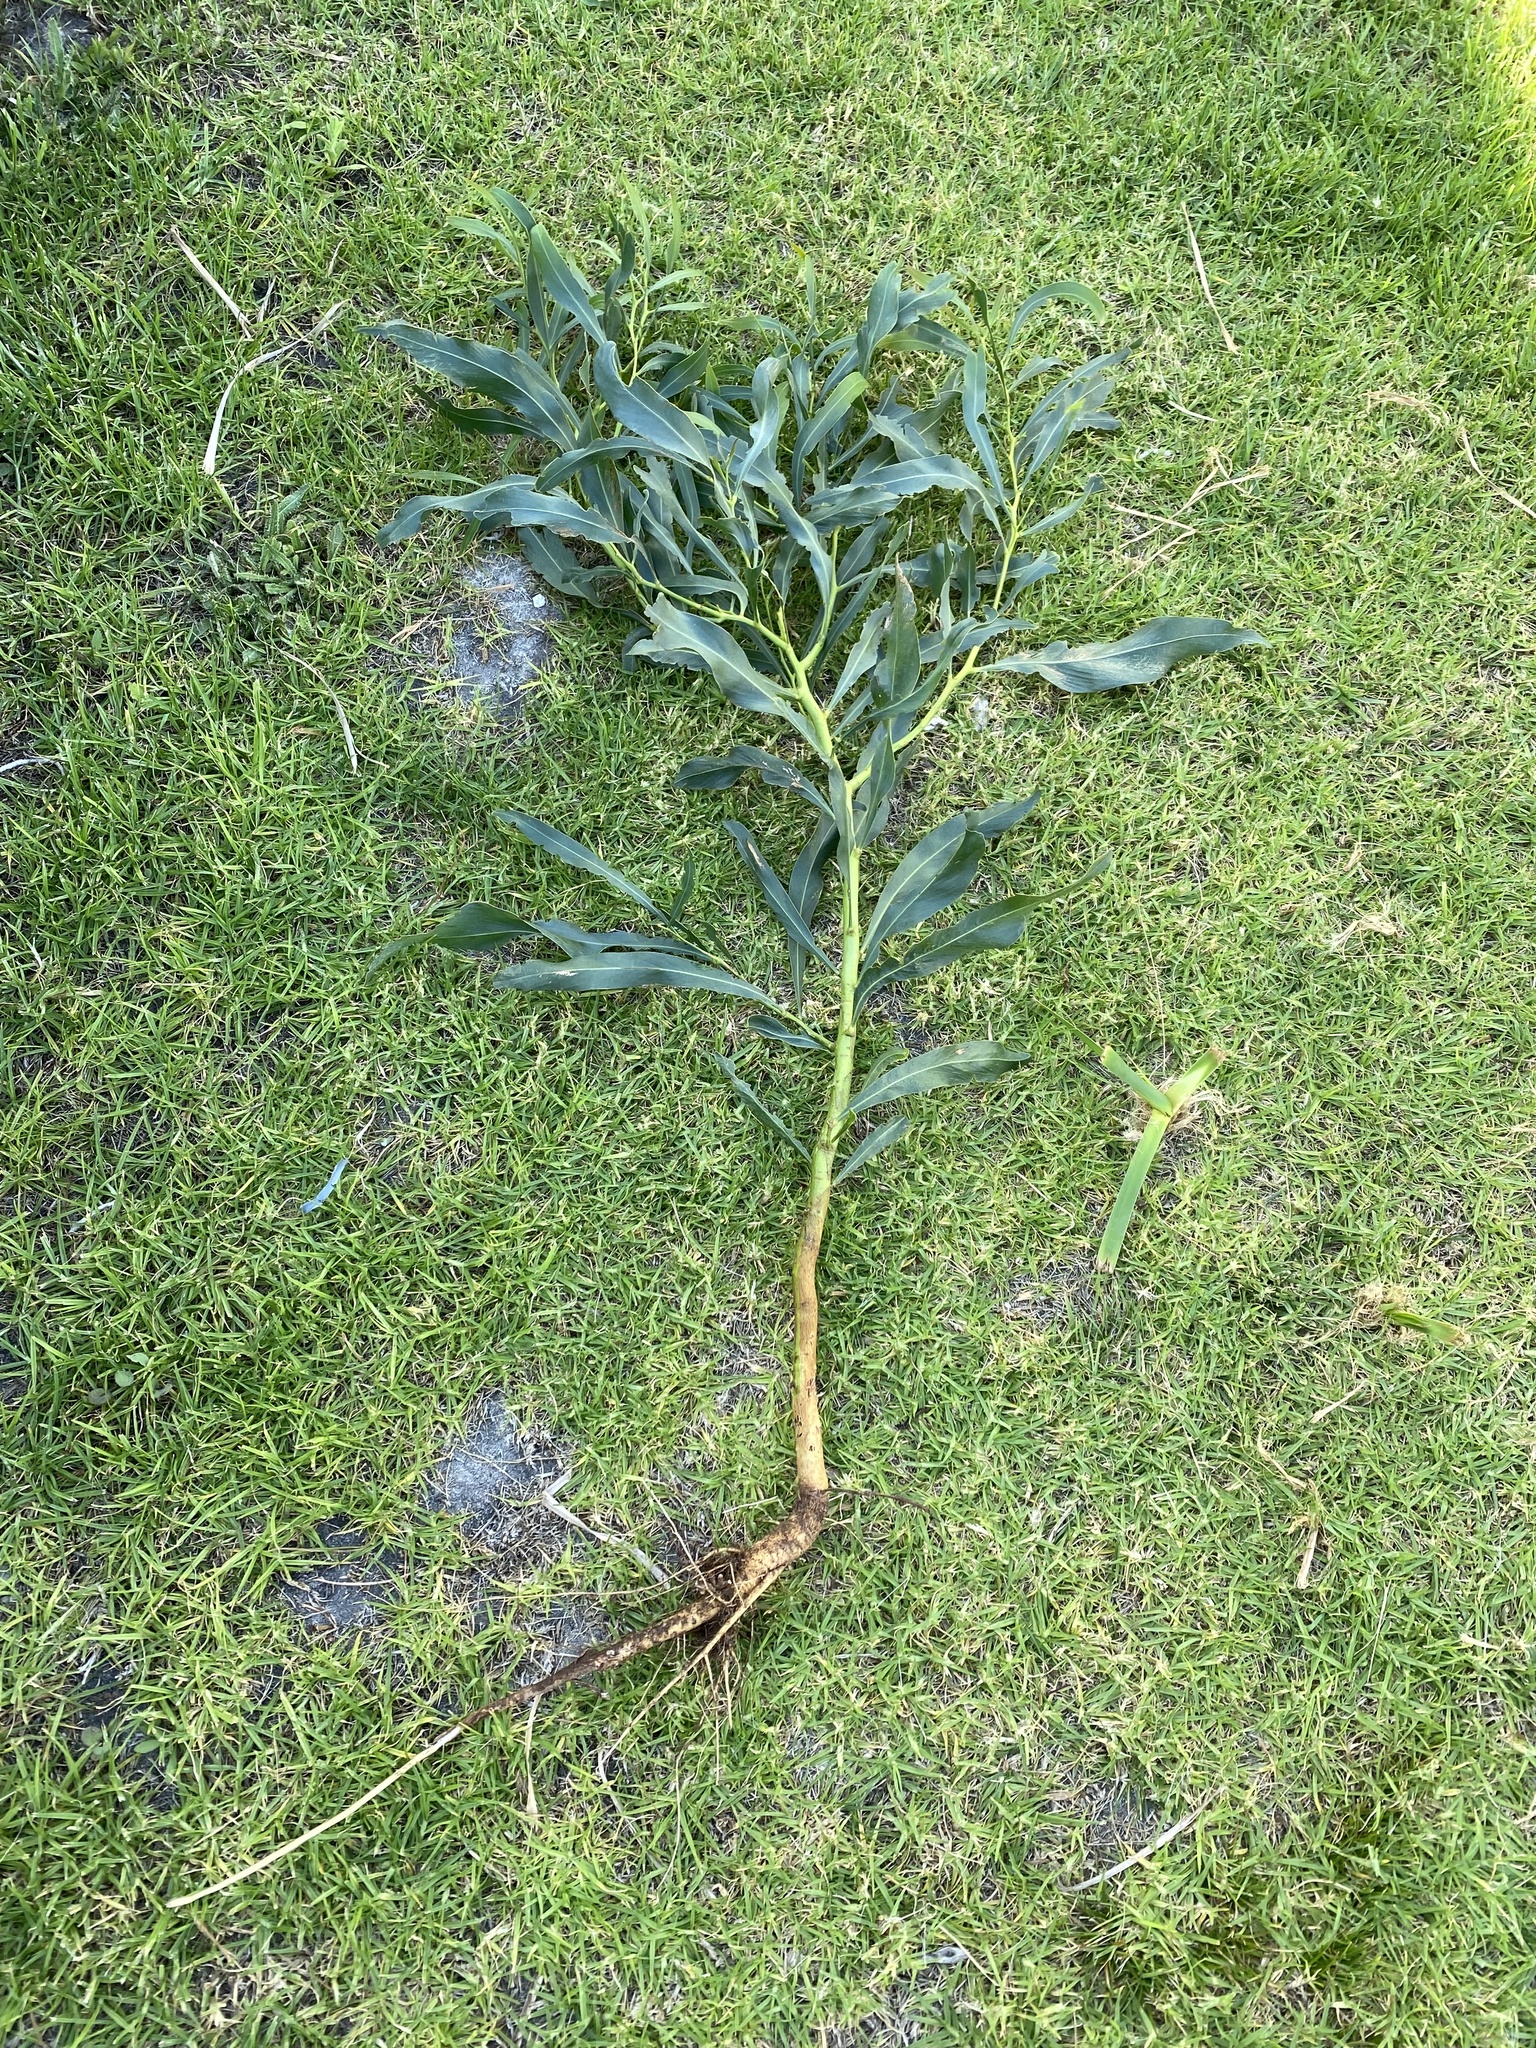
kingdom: Plantae
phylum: Tracheophyta
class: Magnoliopsida
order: Fabales
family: Fabaceae
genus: Acacia
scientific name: Acacia saligna
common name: Orange wattle
